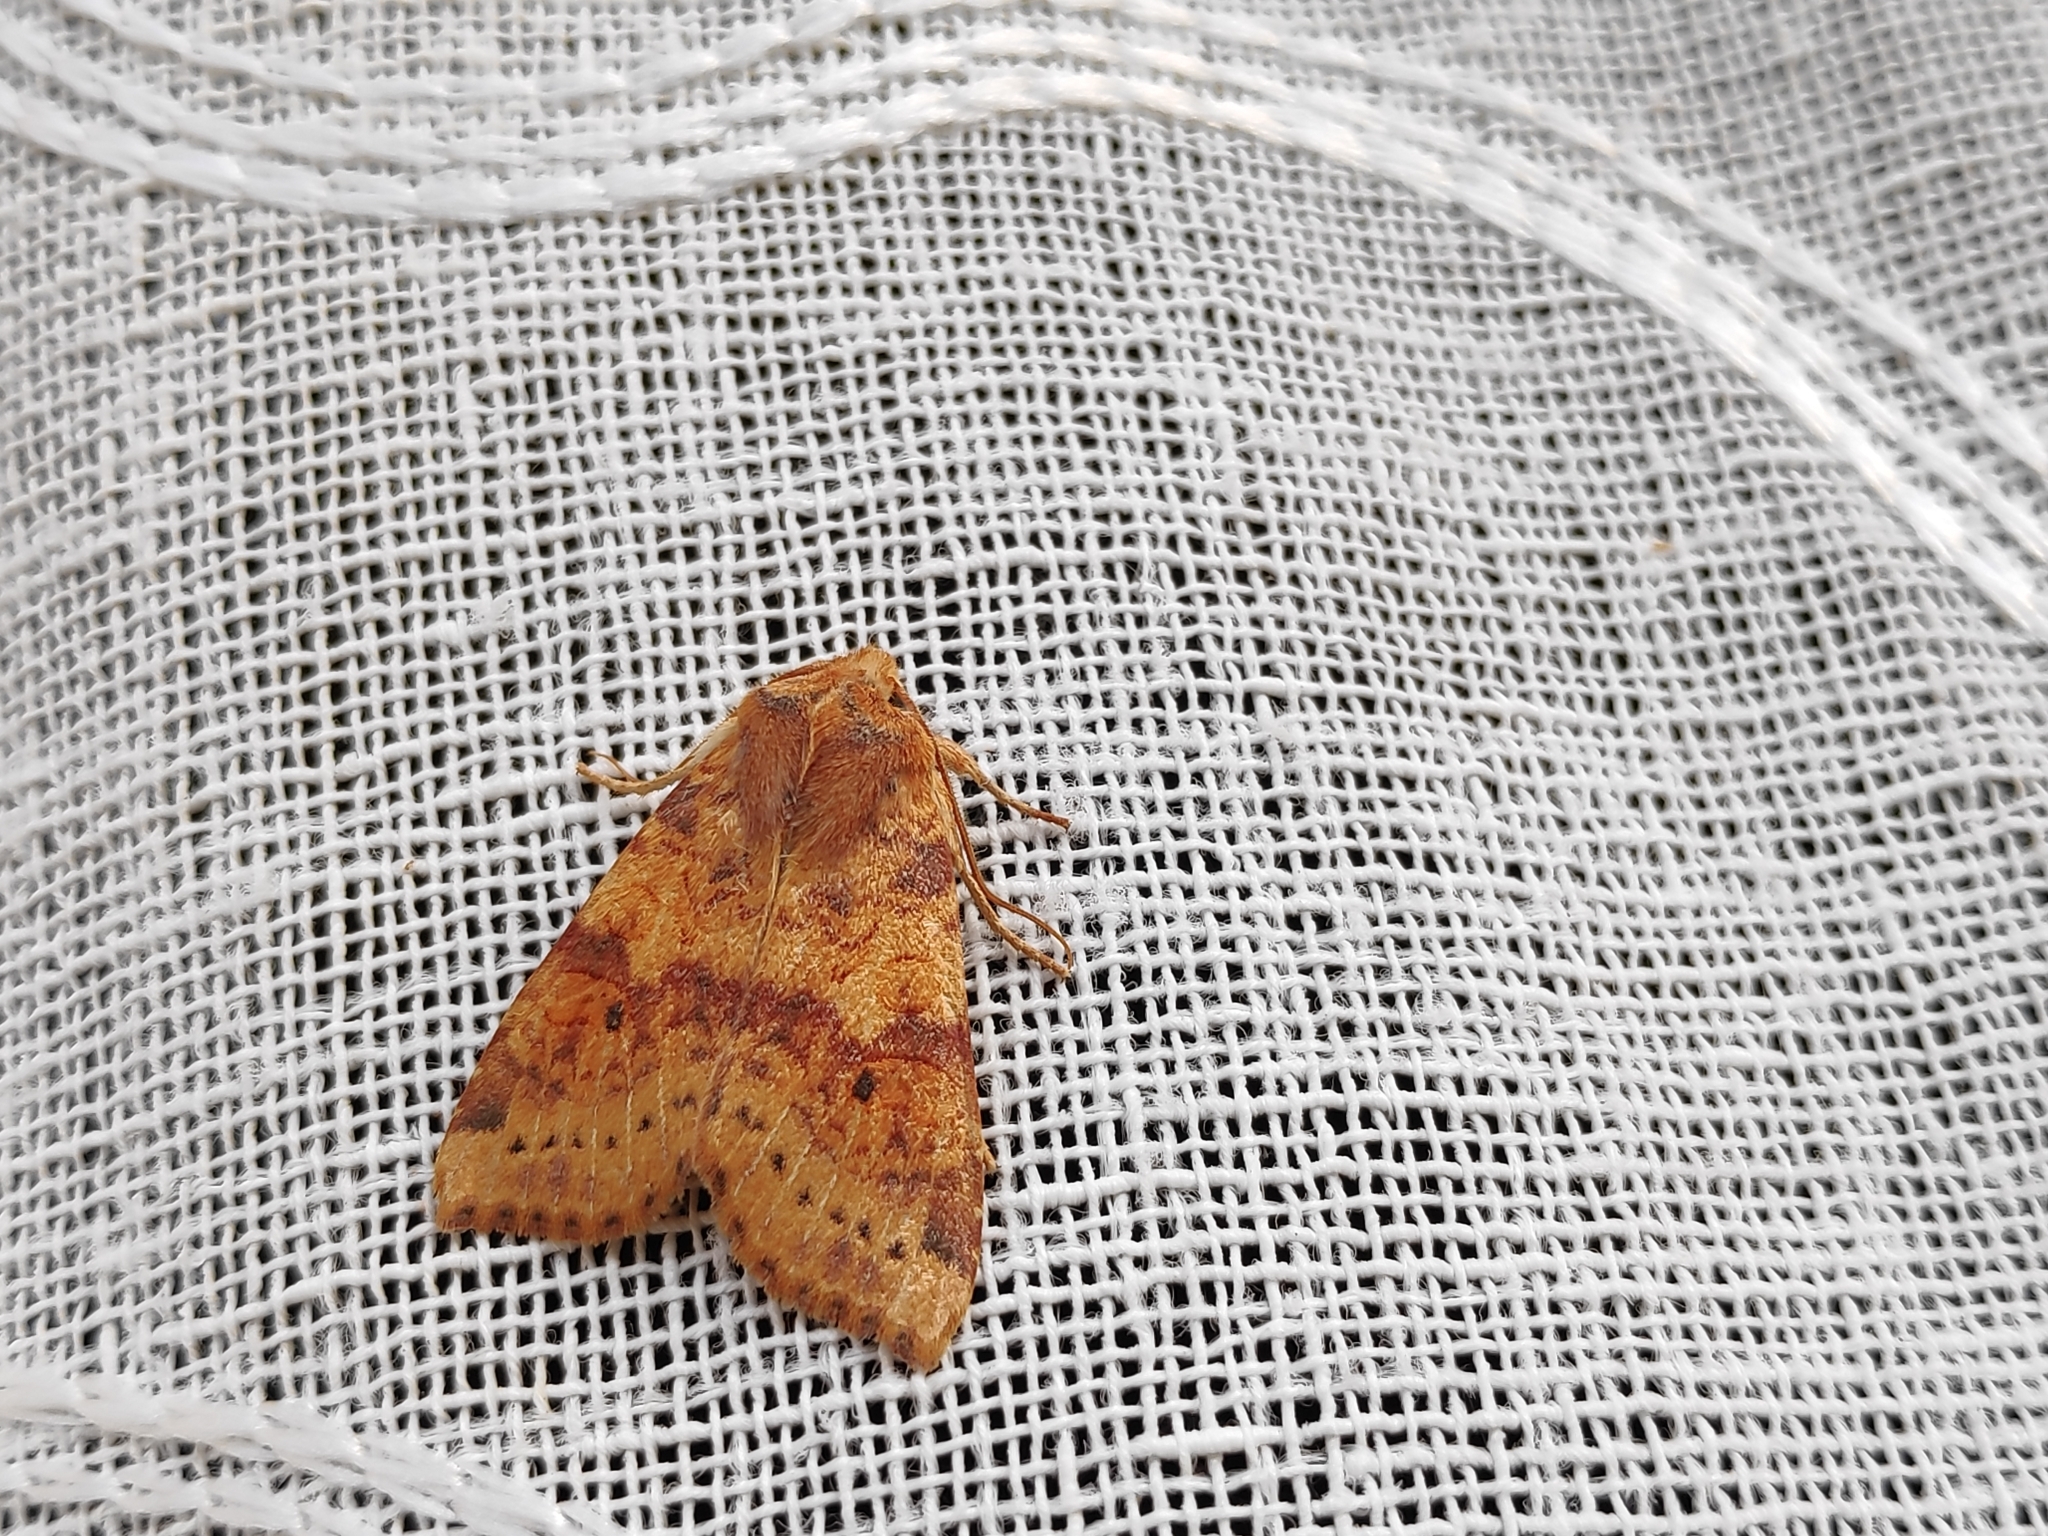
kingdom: Animalia
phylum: Arthropoda
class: Insecta
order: Lepidoptera
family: Noctuidae
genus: Xanthia
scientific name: Xanthia ocellaris
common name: Pale-lemon sallow
